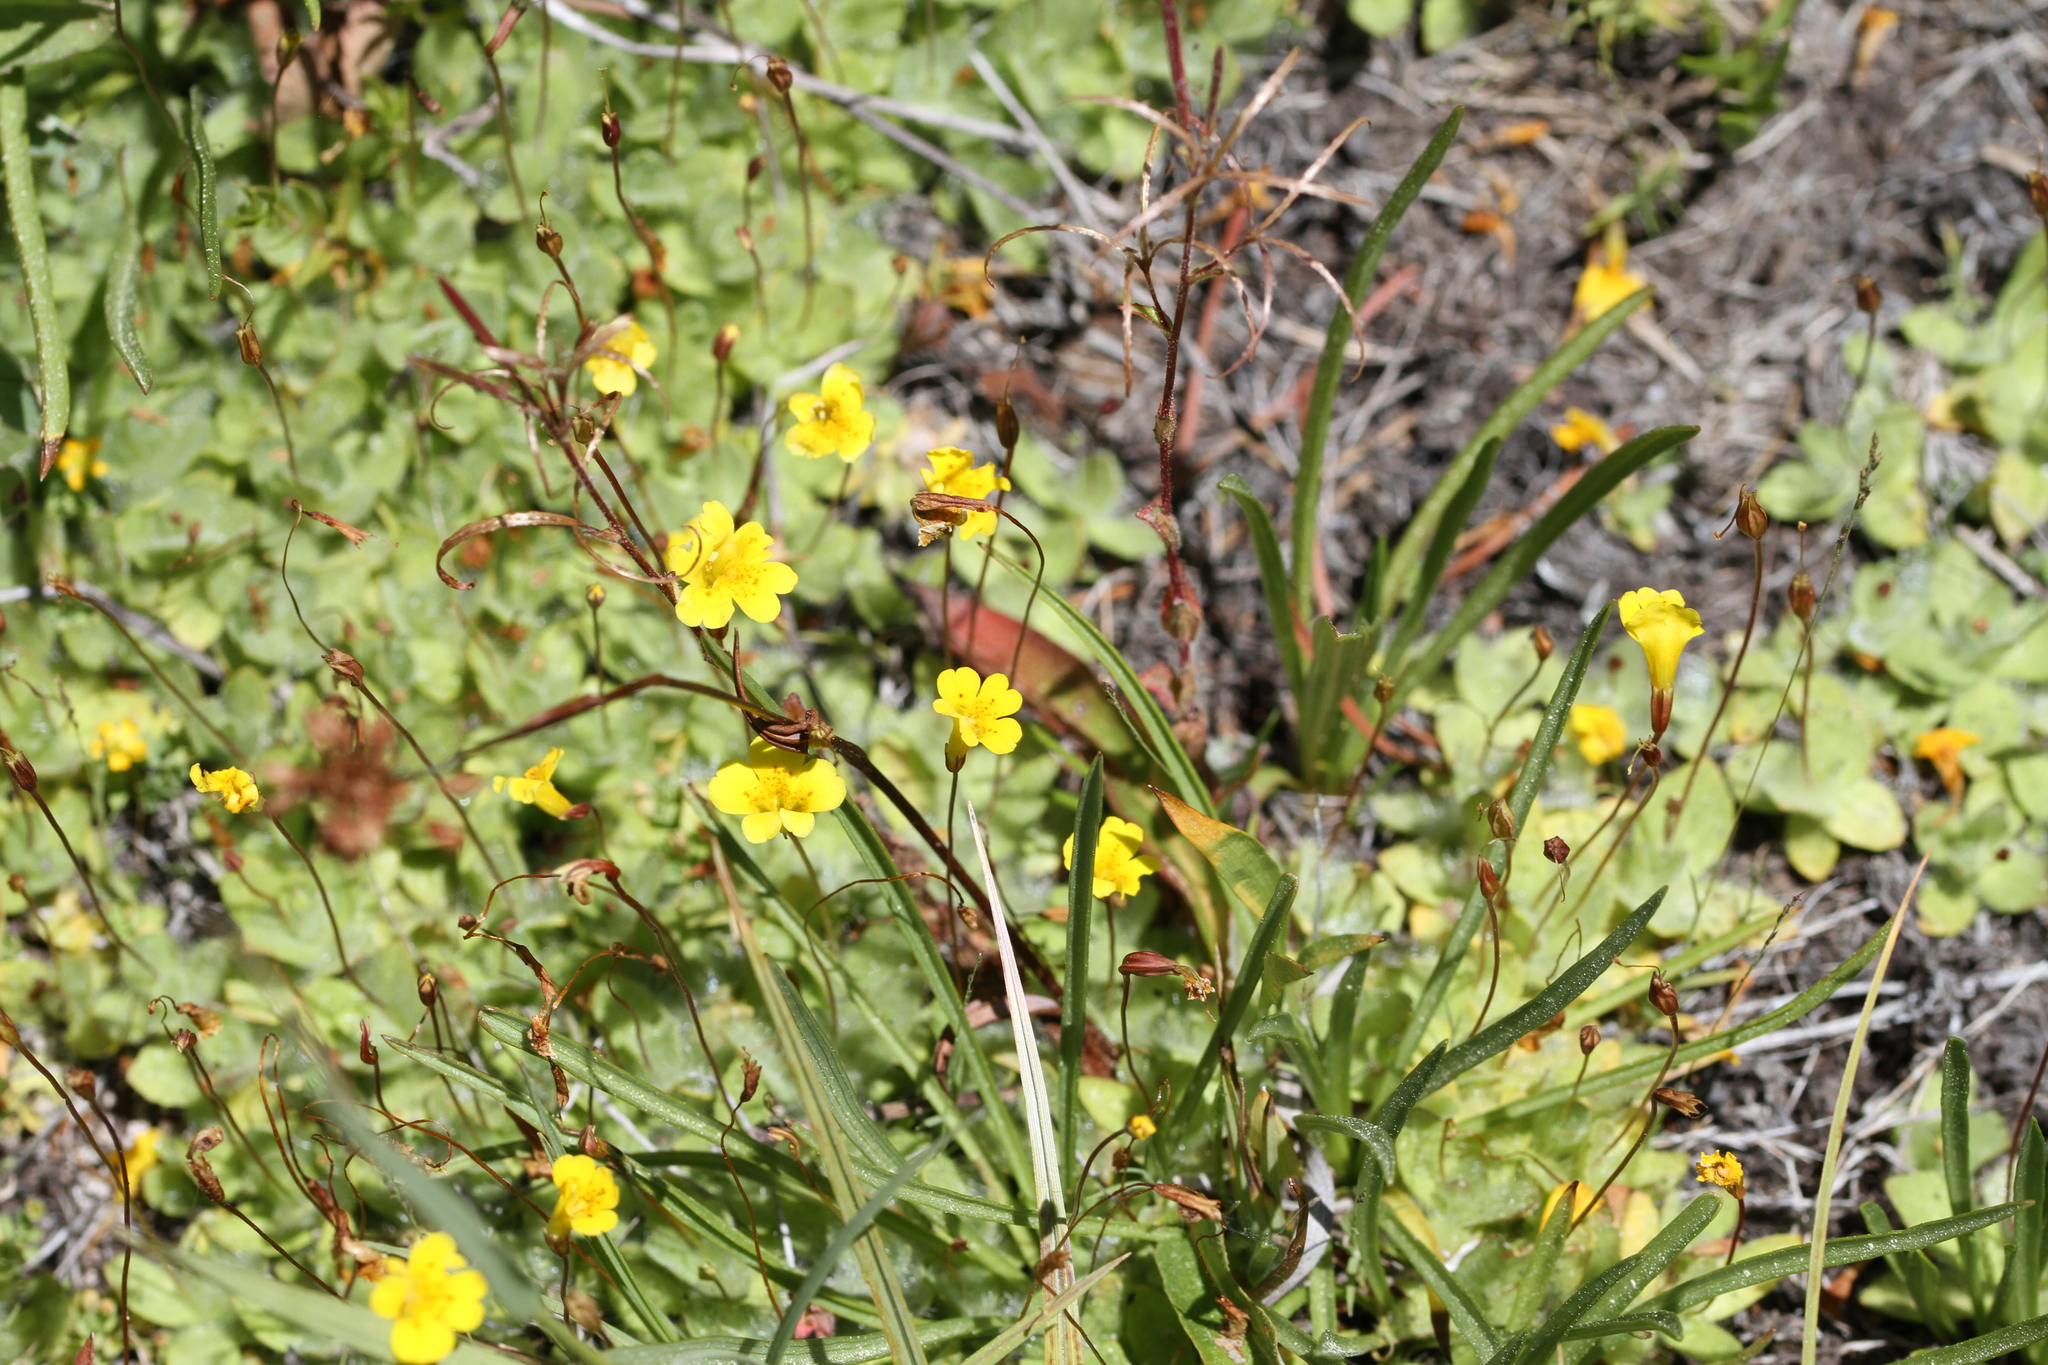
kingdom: Plantae
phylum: Tracheophyta
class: Magnoliopsida
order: Lamiales
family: Phrymaceae
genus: Erythranthe
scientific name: Erythranthe primuloides
